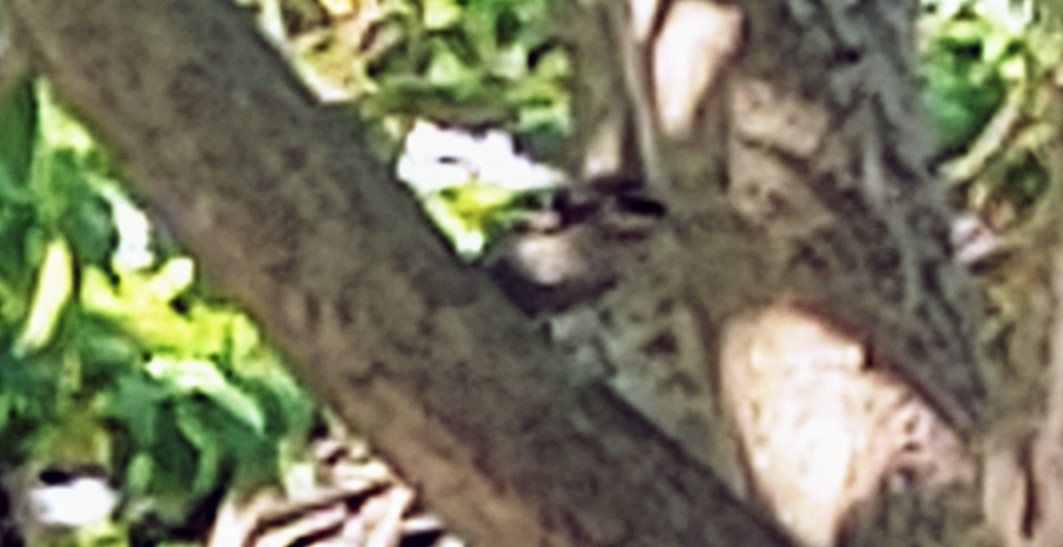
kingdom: Animalia
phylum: Chordata
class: Aves
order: Piciformes
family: Picidae
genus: Dryobates
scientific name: Dryobates pubescens
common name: Downy woodpecker
